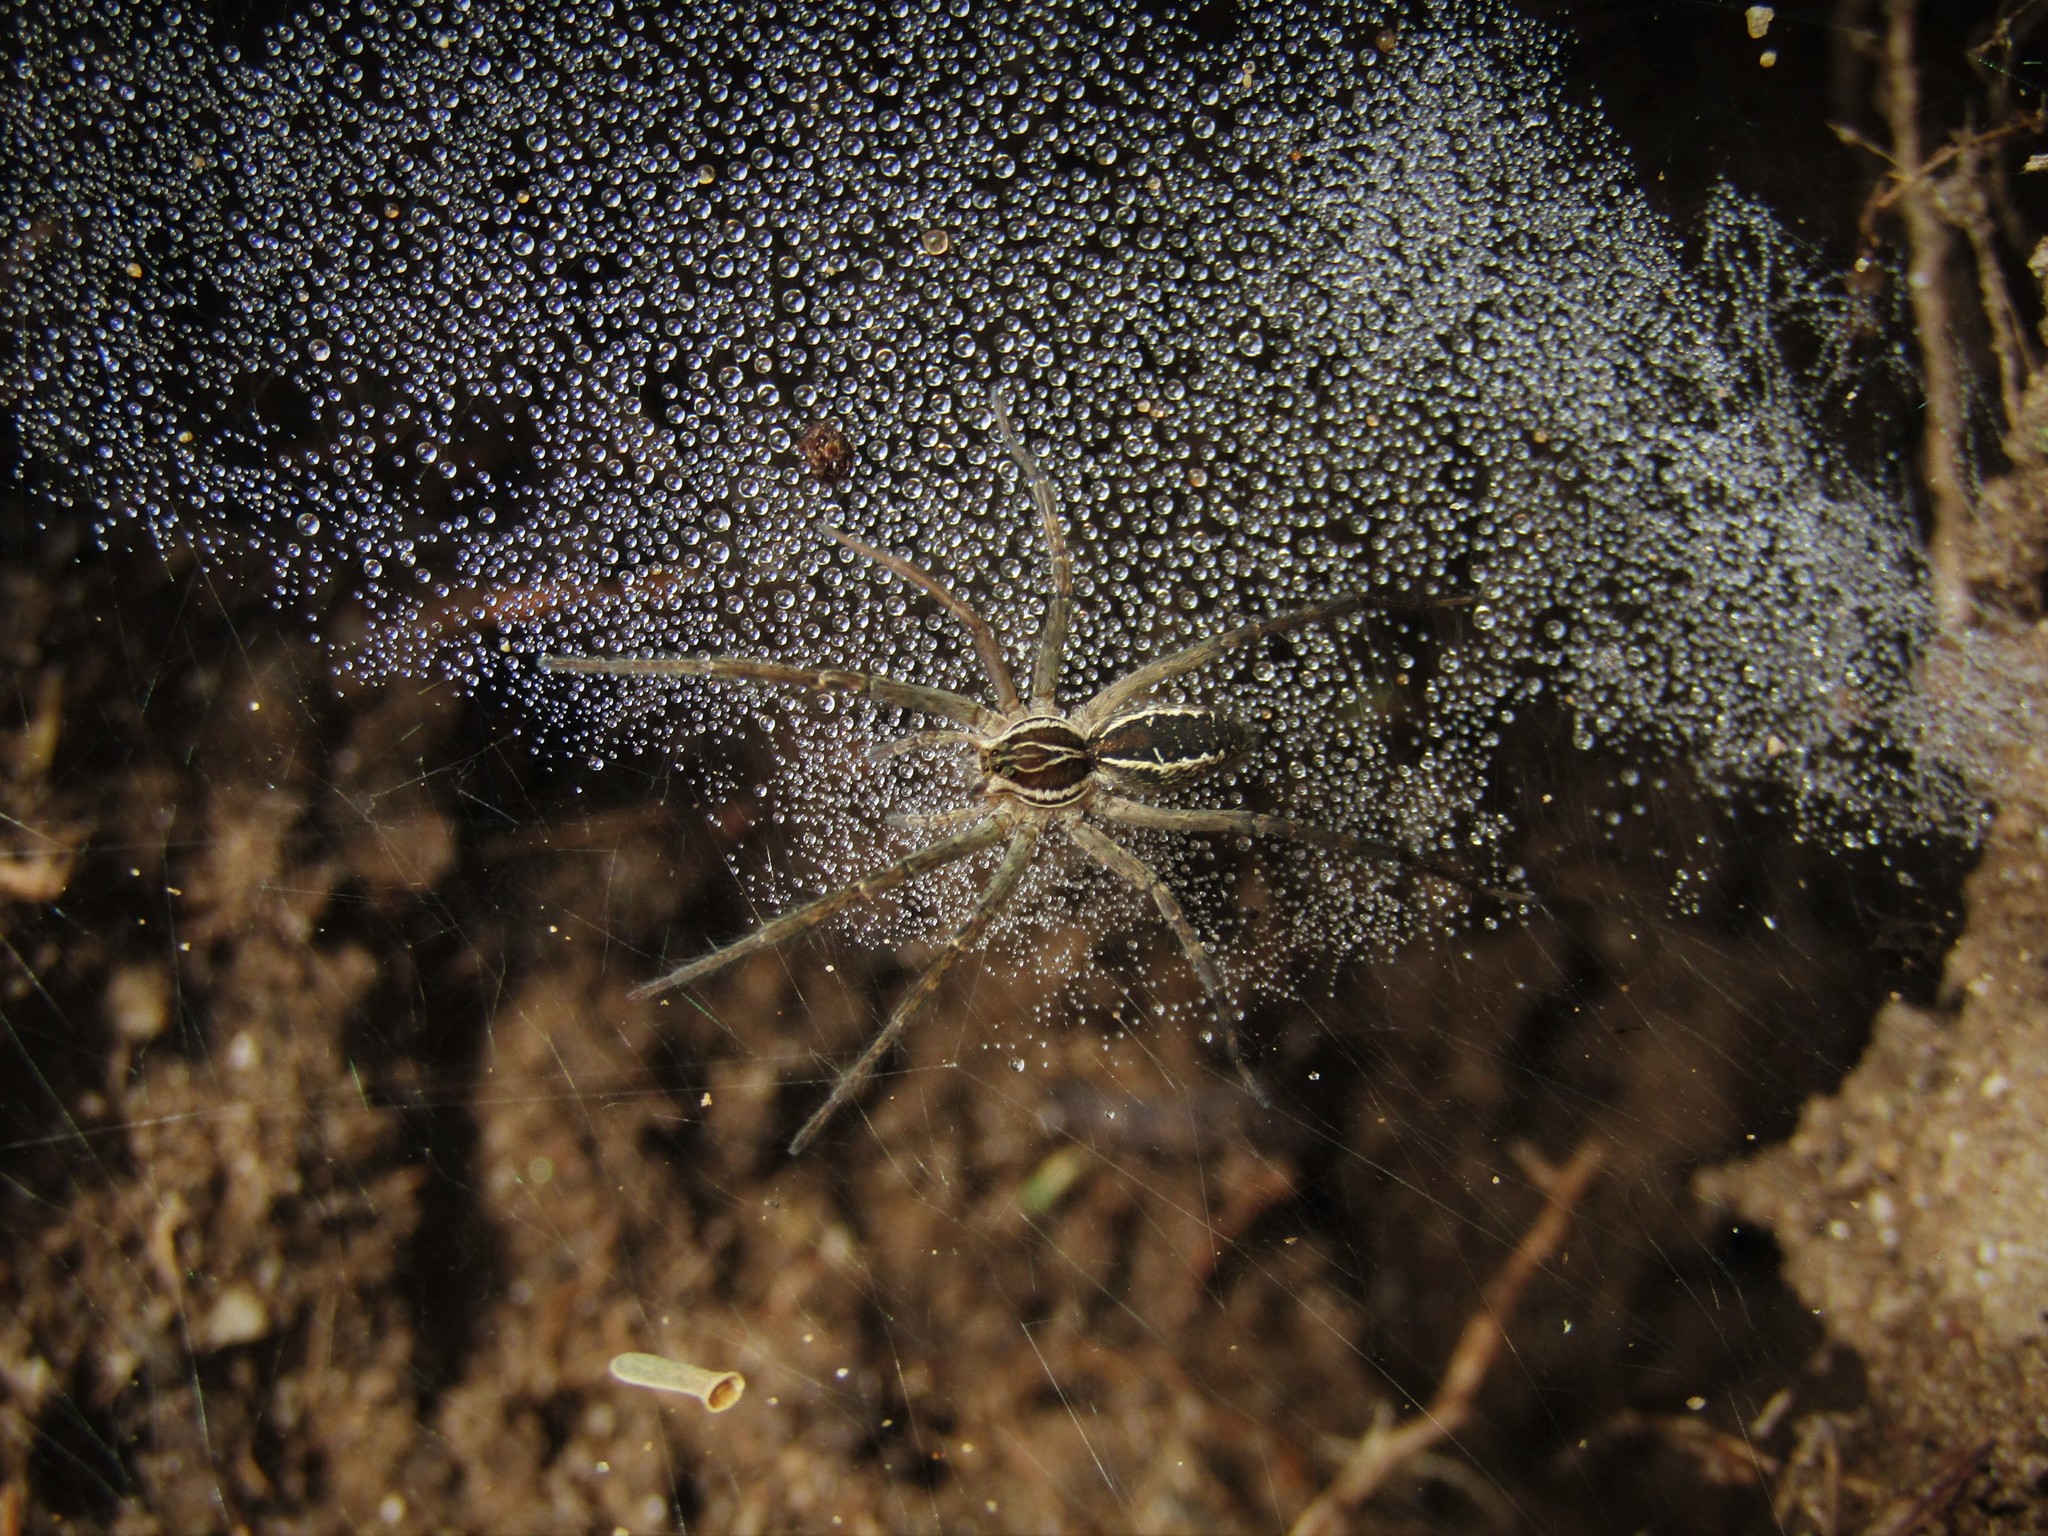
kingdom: Animalia
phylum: Arthropoda
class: Arachnida
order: Araneae
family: Lycosidae
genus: Aglaoctenus
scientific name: Aglaoctenus lagotis
